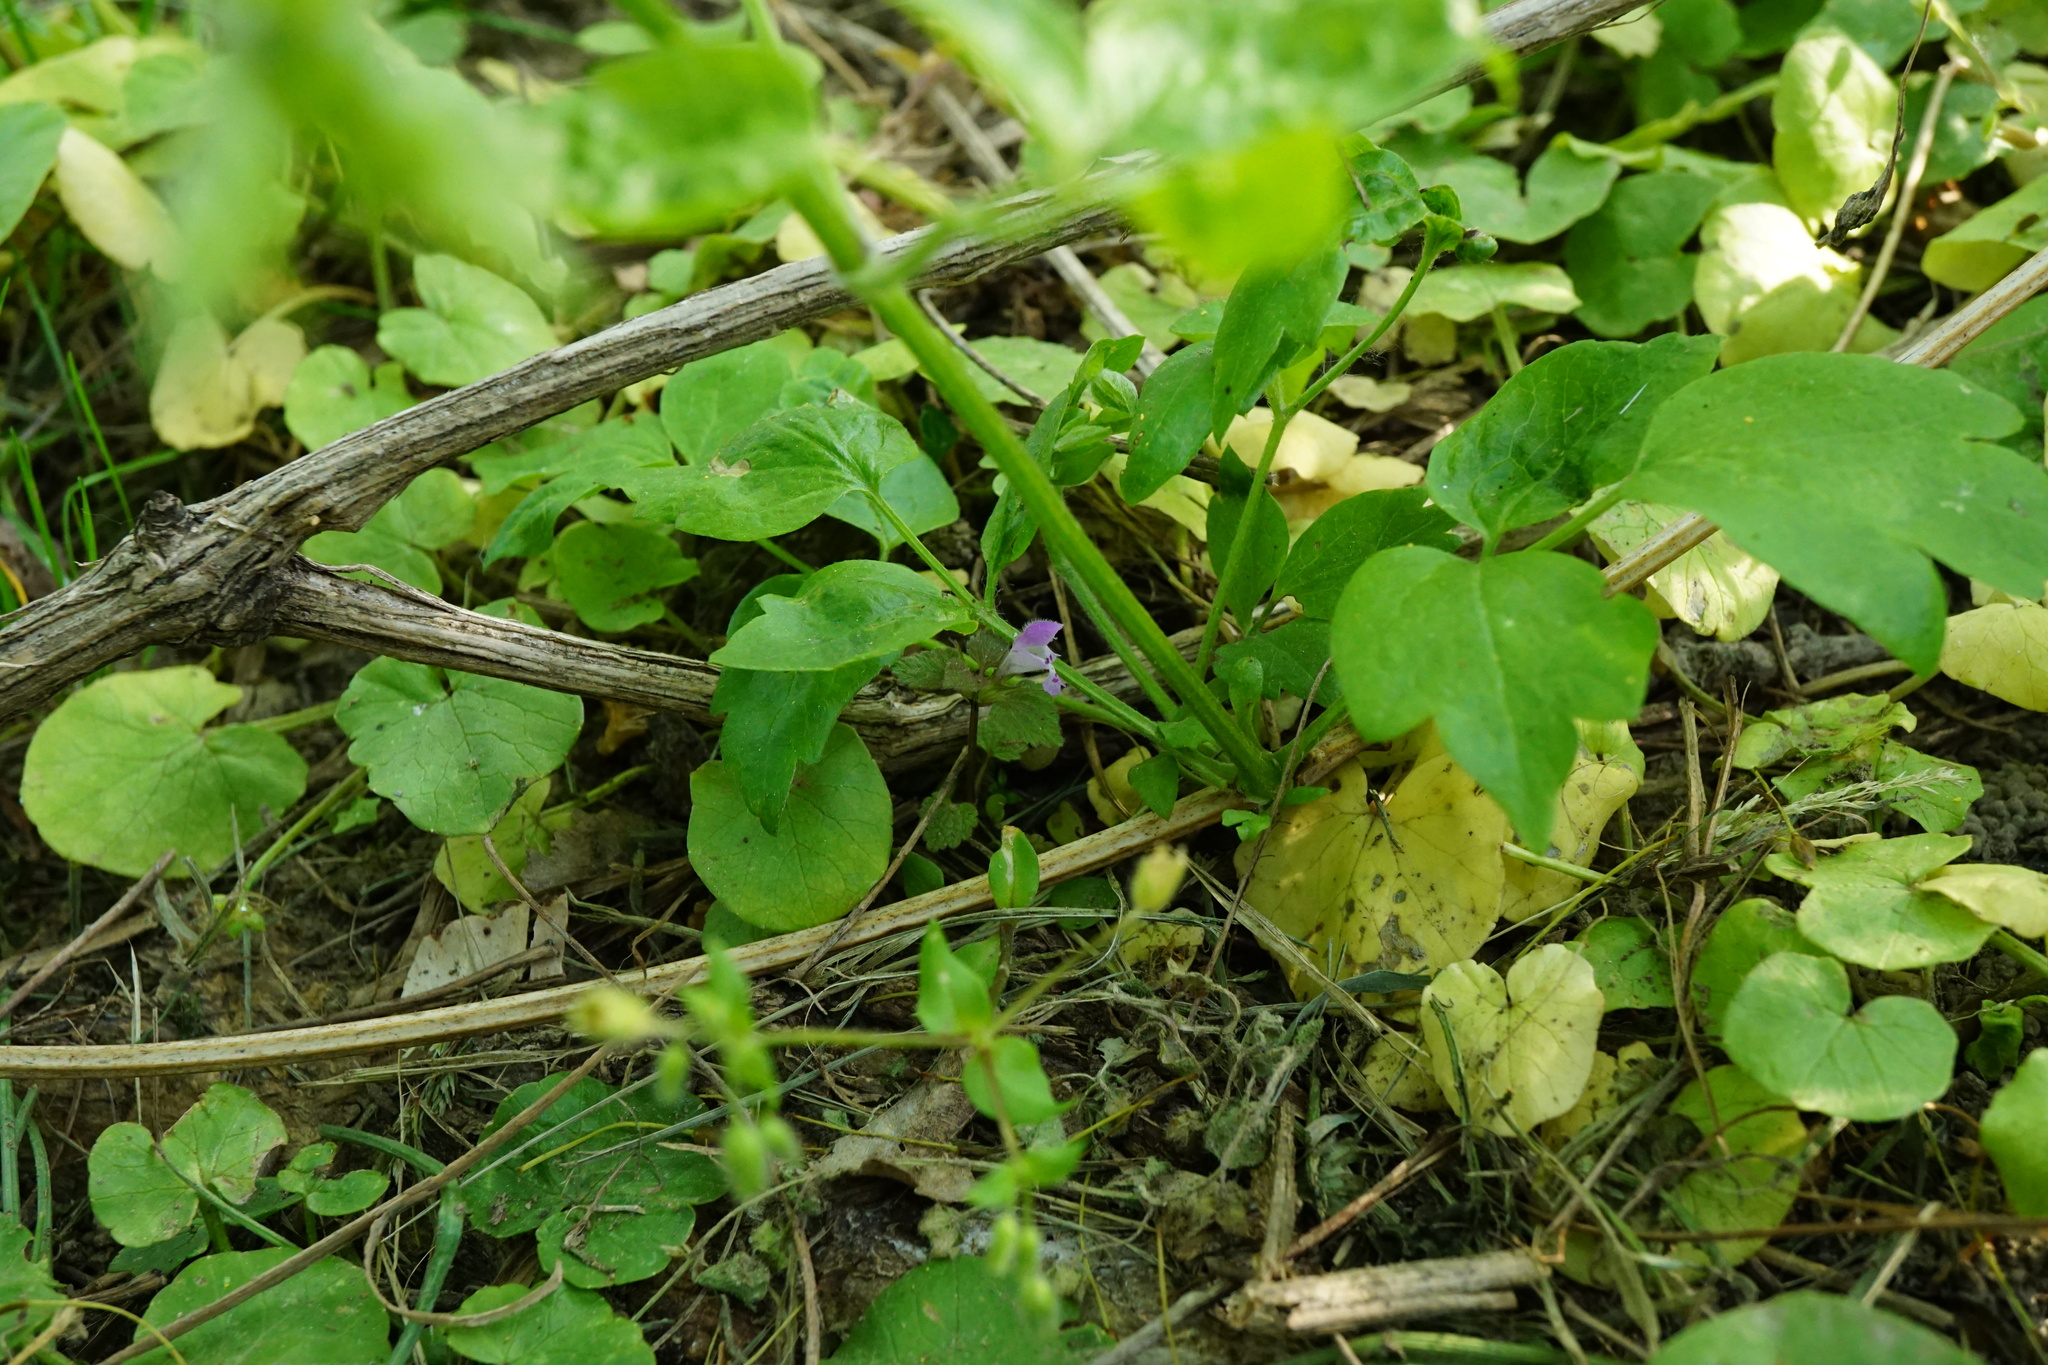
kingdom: Plantae
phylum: Tracheophyta
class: Magnoliopsida
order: Lamiales
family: Lamiaceae
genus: Lamium
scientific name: Lamium purpureum
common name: Red dead-nettle
